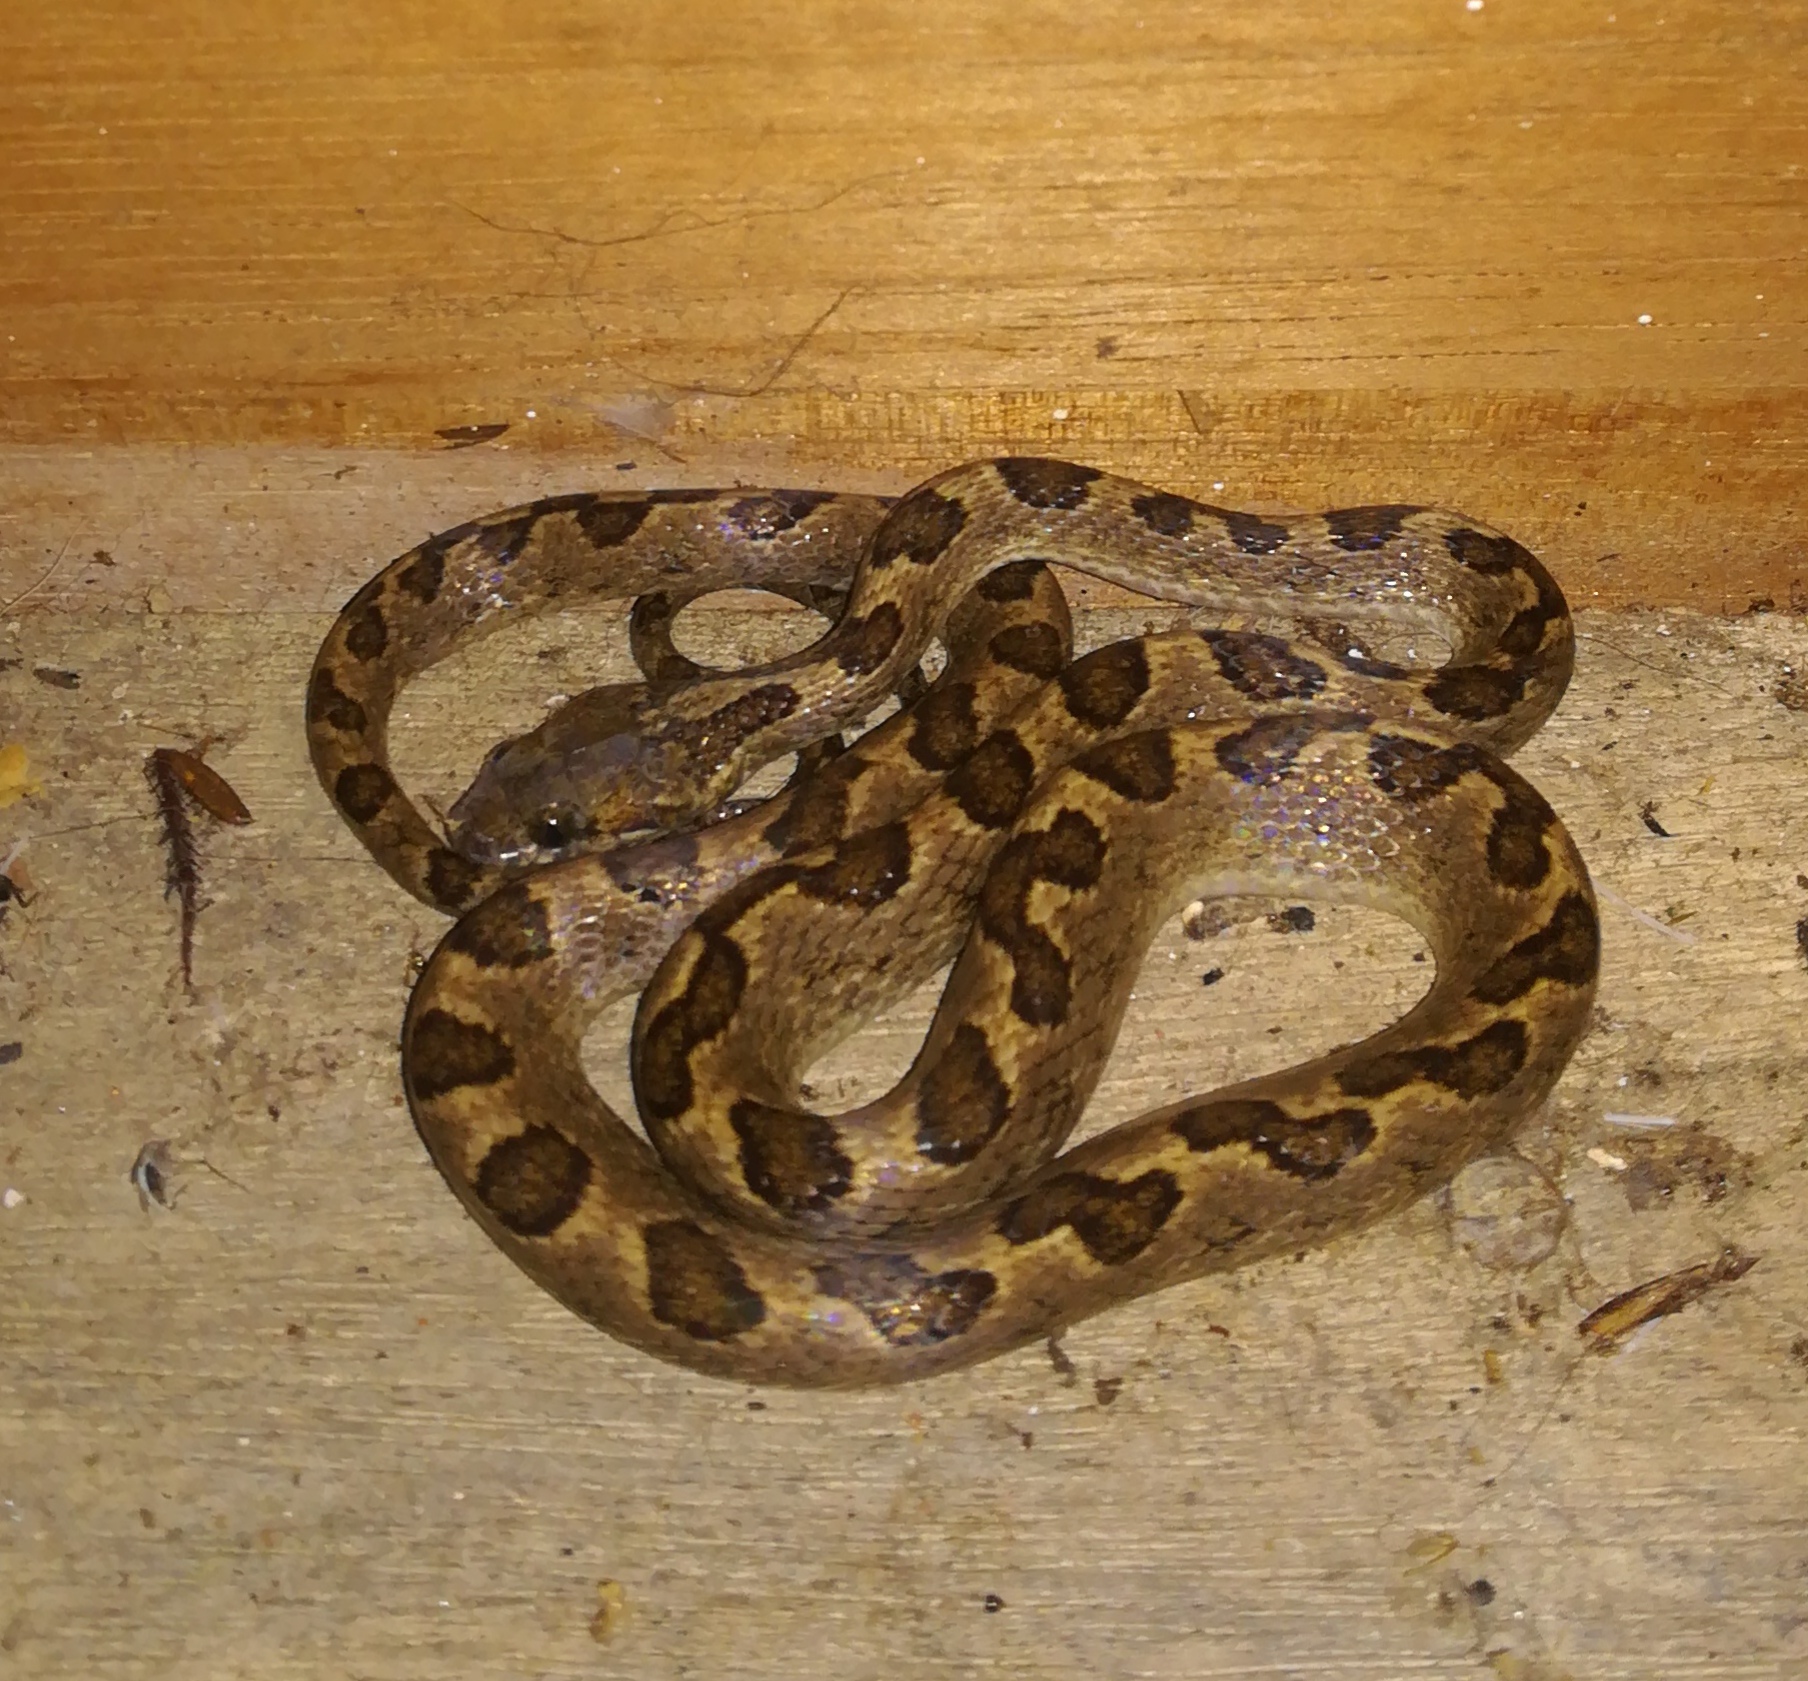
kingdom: Animalia
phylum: Chordata
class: Squamata
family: Colubridae
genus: Leptodeira
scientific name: Leptodeira ashmeadii
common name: Banded cat-eyed snake
